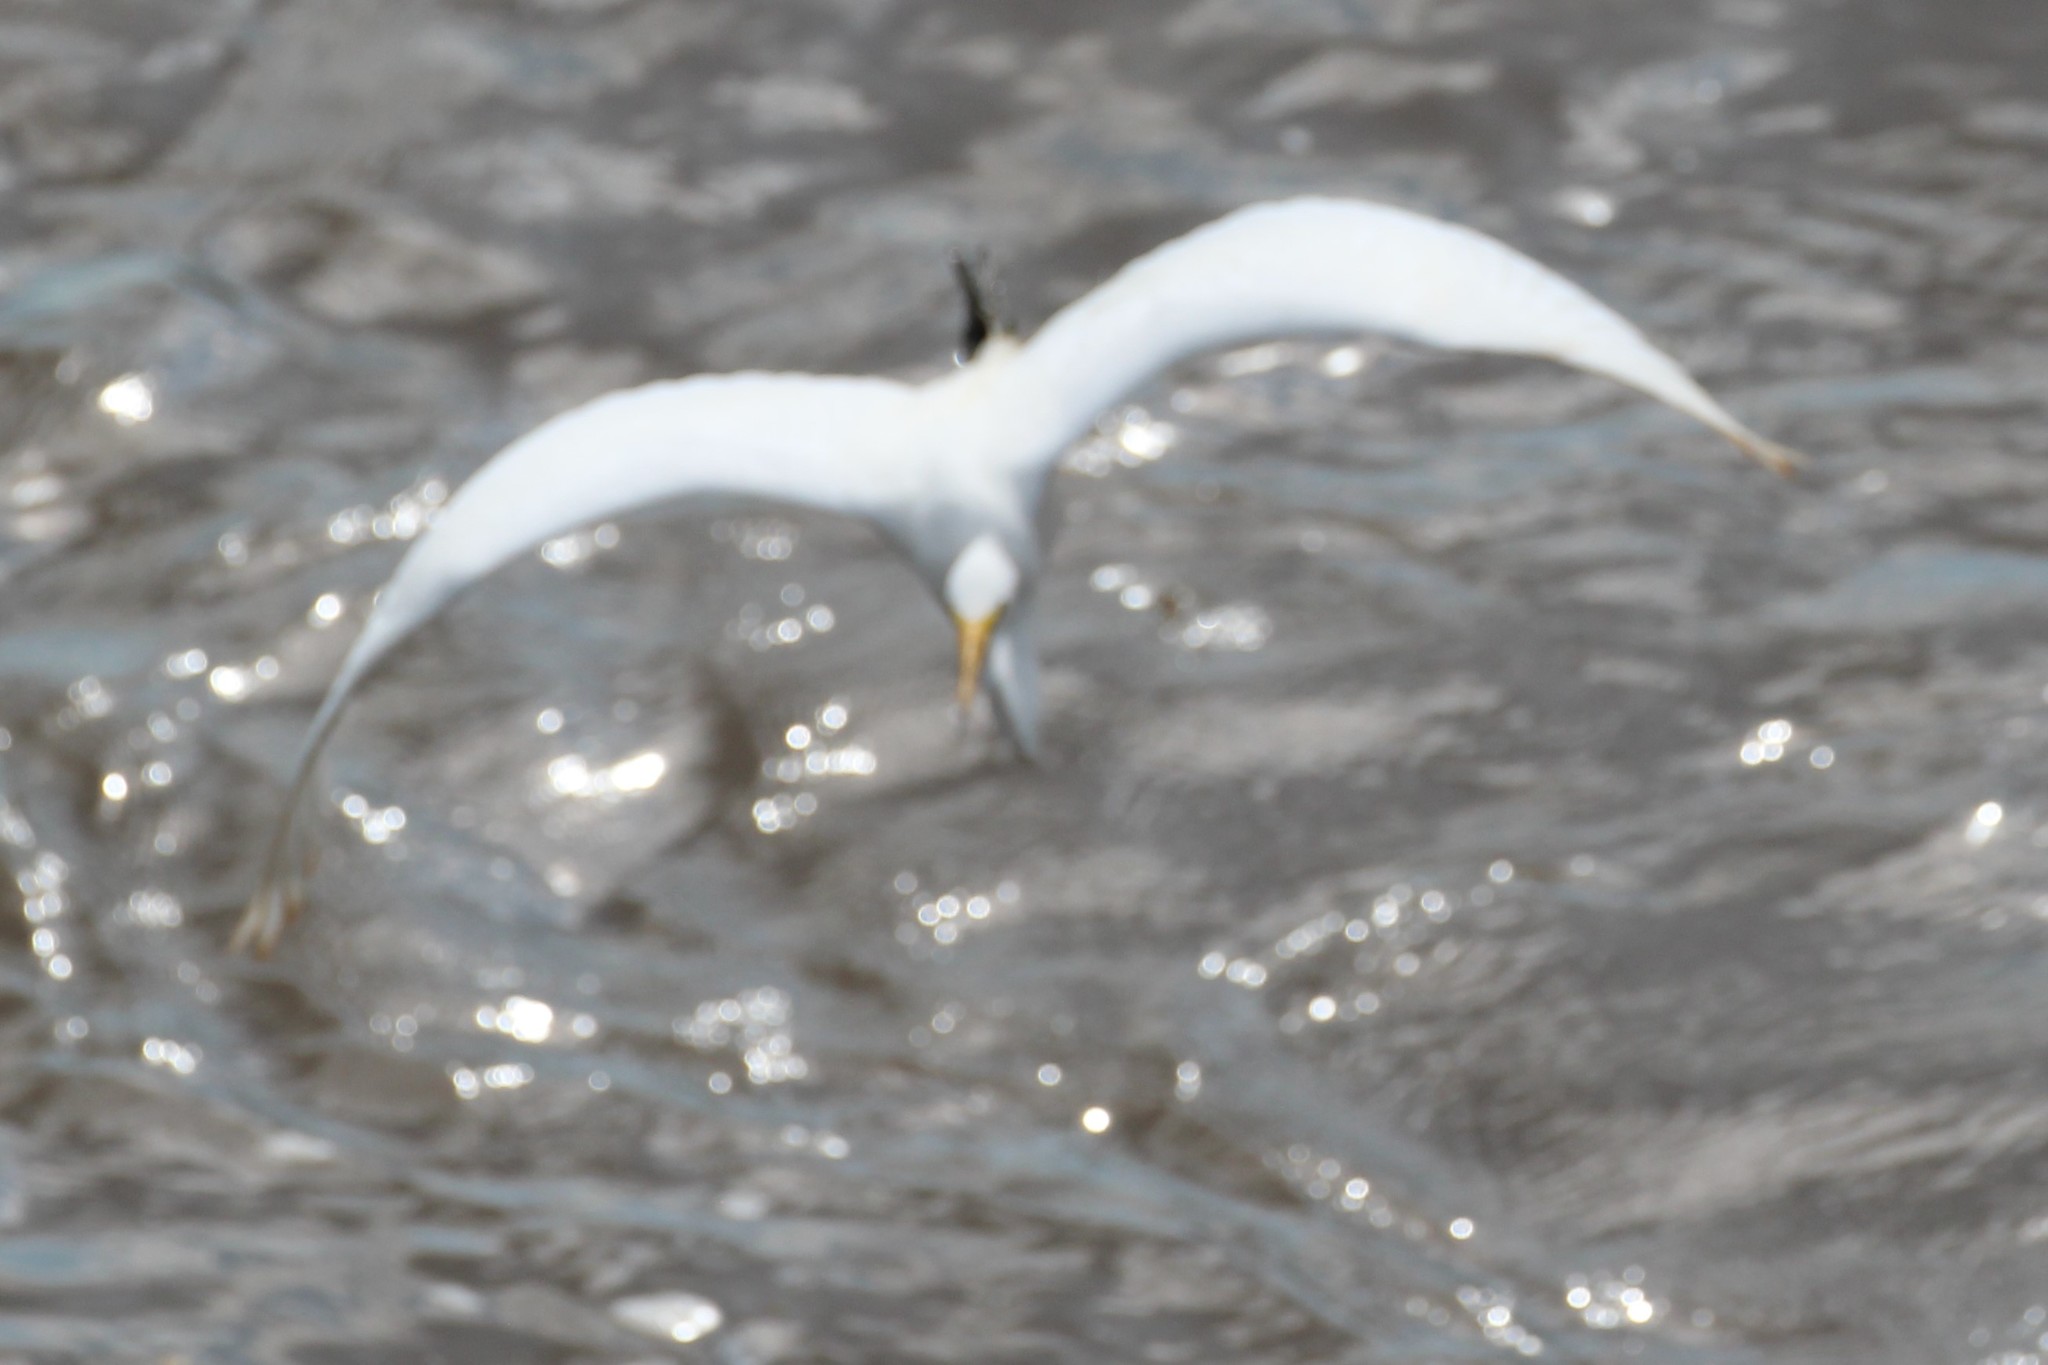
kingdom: Animalia
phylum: Chordata
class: Aves
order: Pelecaniformes
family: Ardeidae
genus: Ardea
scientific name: Ardea alba
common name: Great egret
